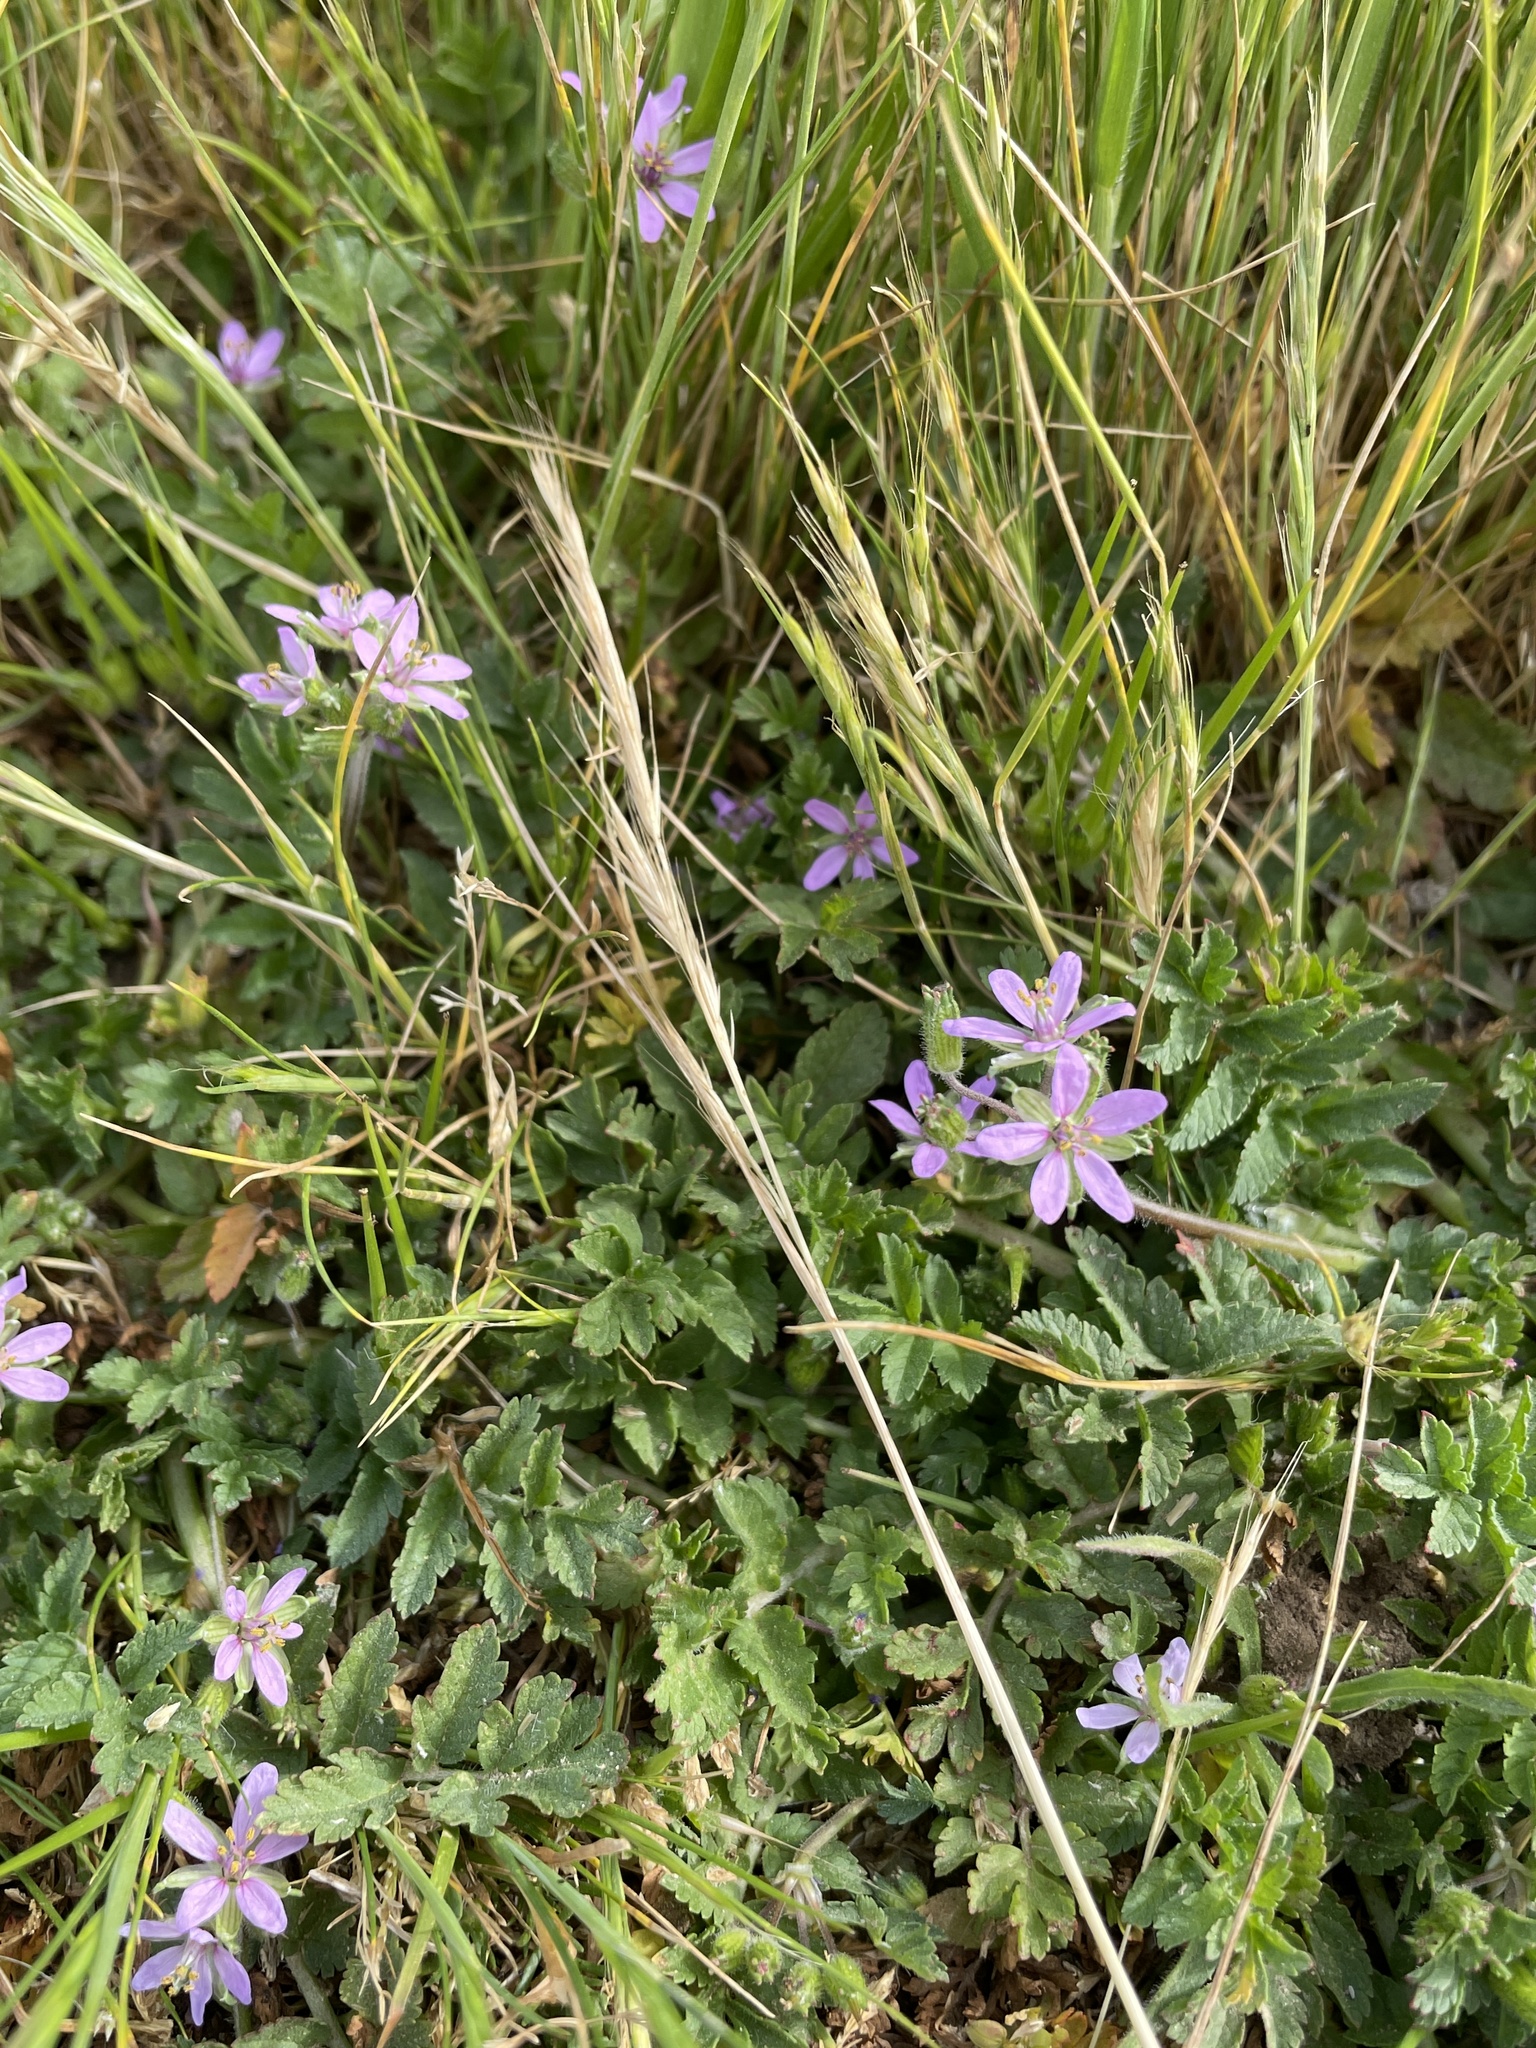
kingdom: Plantae
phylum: Tracheophyta
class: Magnoliopsida
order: Geraniales
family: Geraniaceae
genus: Erodium
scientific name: Erodium moschatum
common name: Musk stork's-bill
